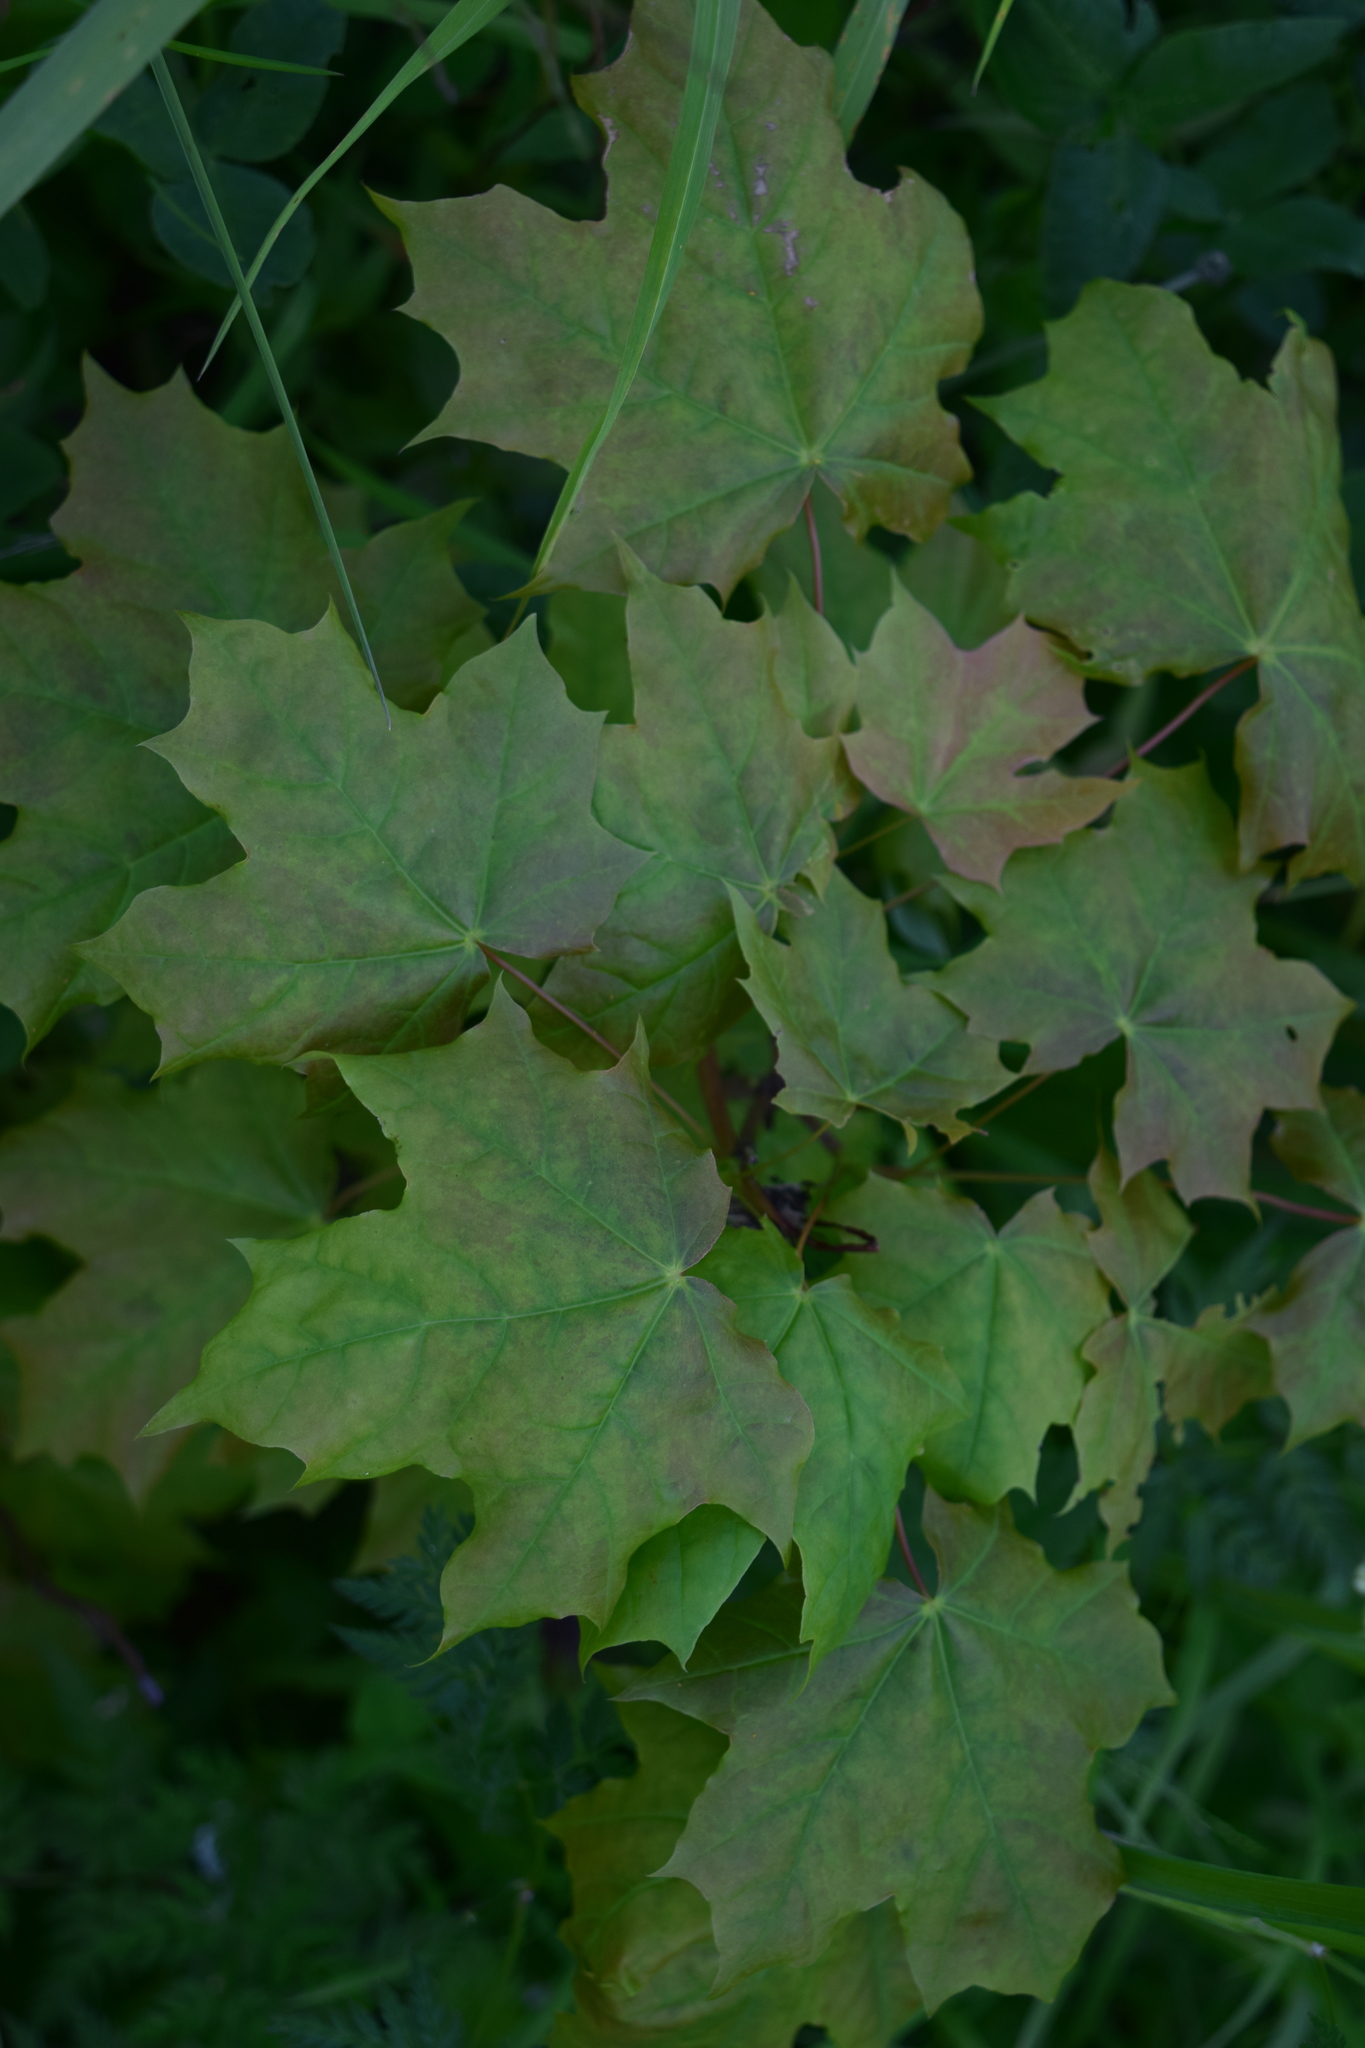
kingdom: Plantae
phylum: Tracheophyta
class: Magnoliopsida
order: Sapindales
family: Sapindaceae
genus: Acer
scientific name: Acer platanoides
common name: Norway maple
